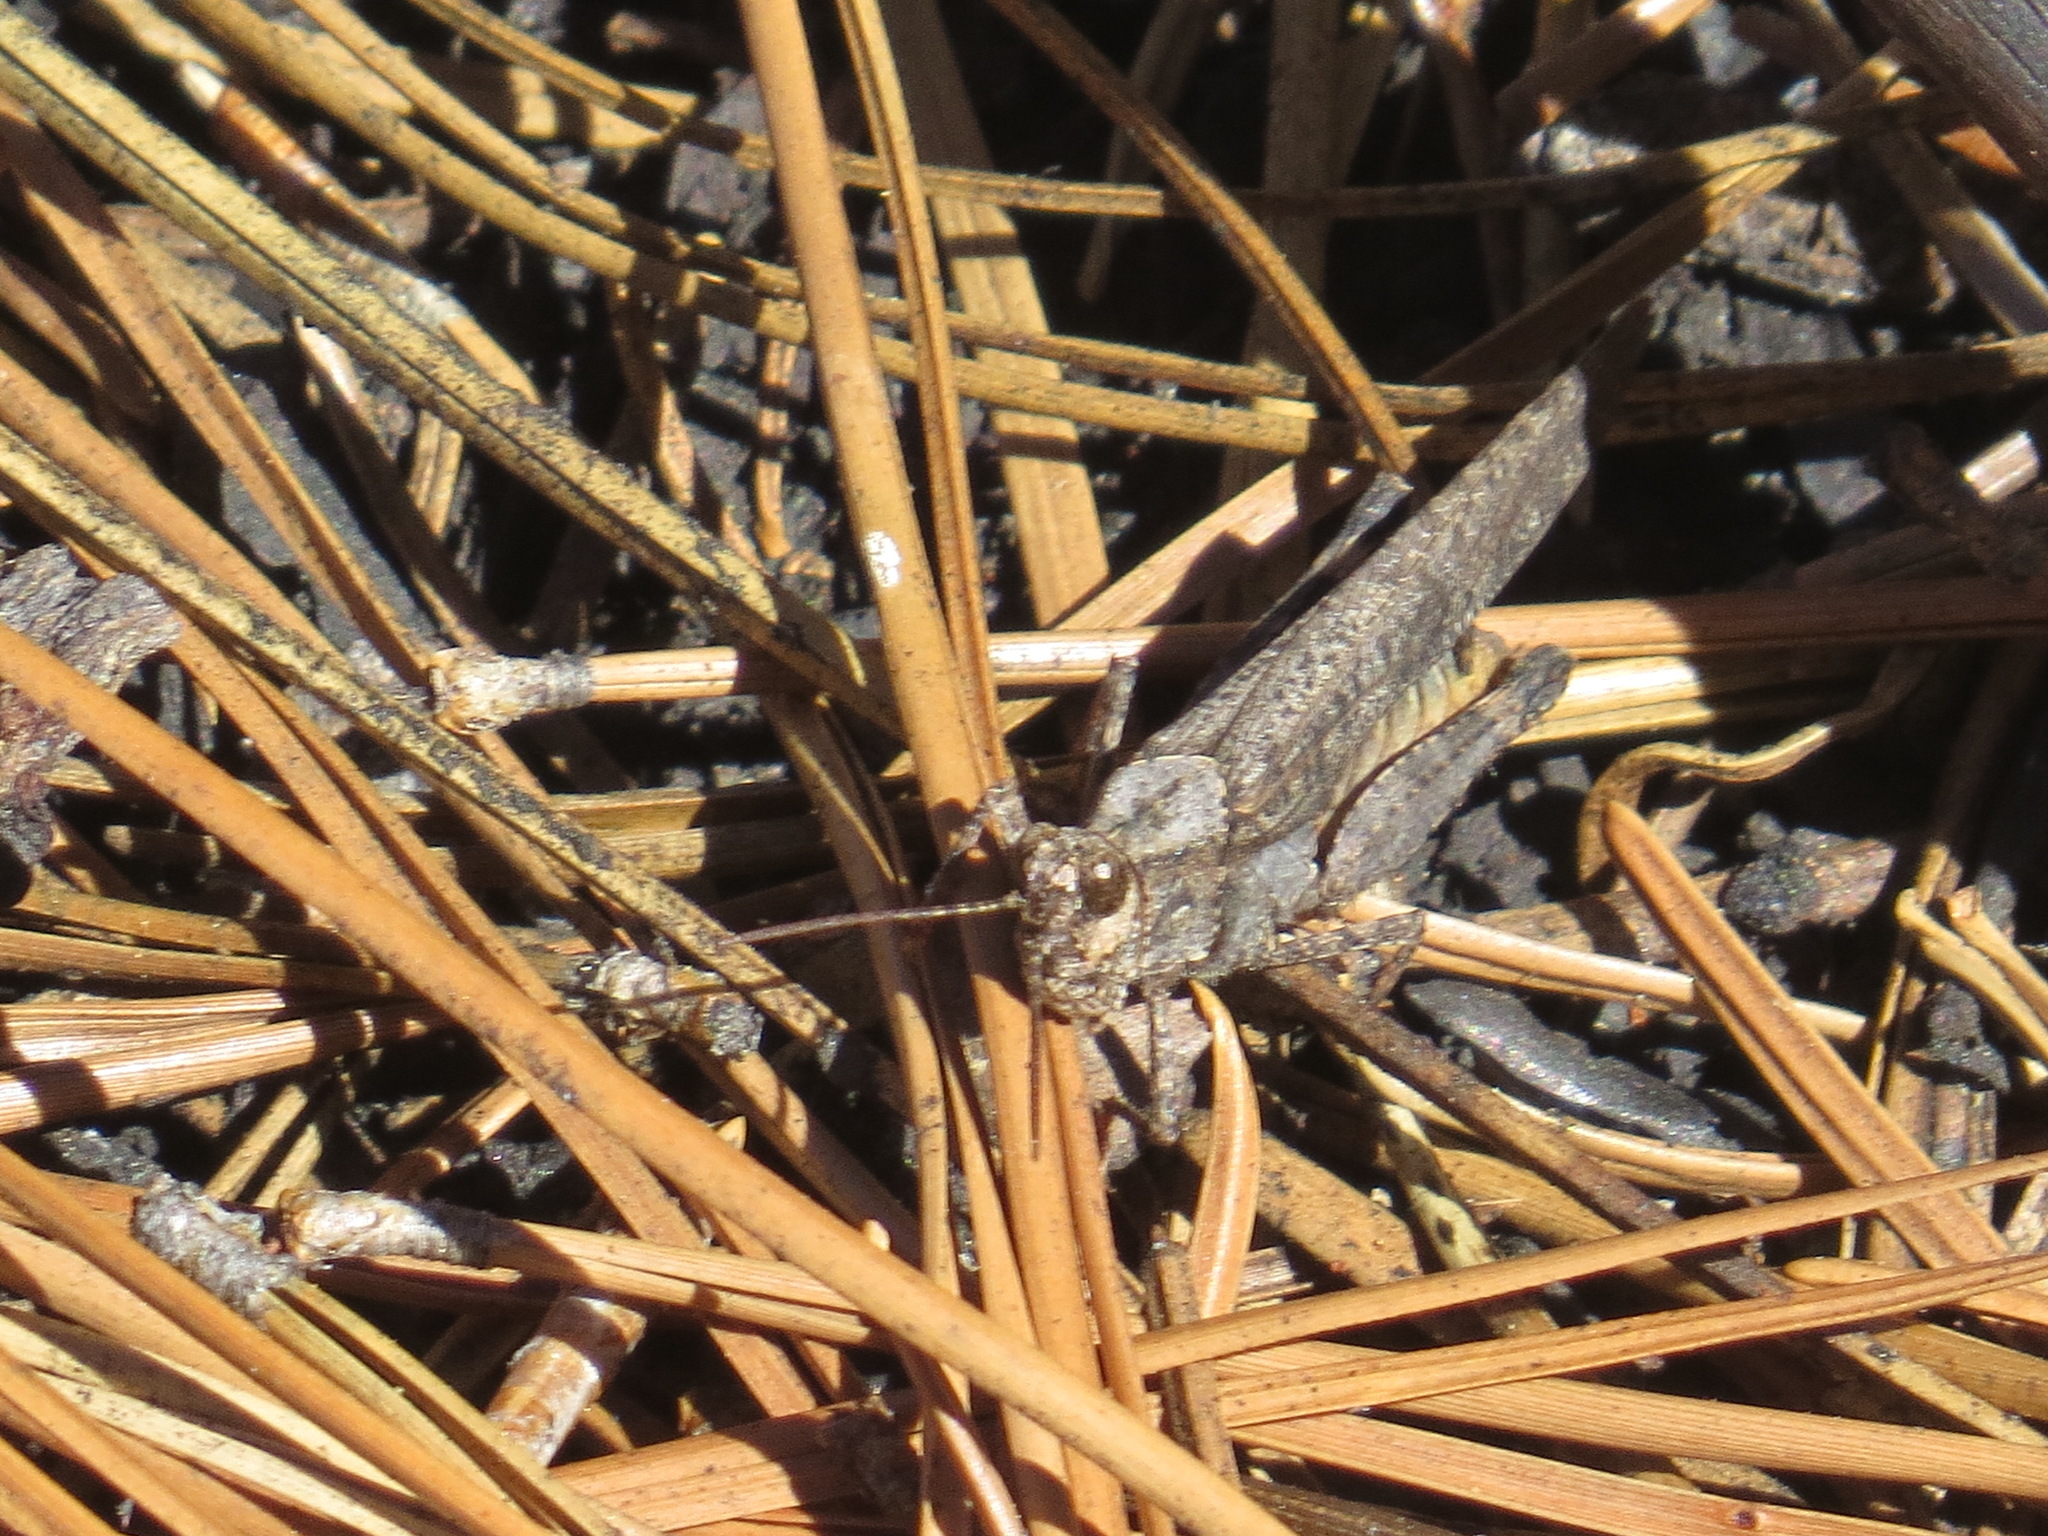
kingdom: Animalia
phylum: Arthropoda
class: Insecta
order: Orthoptera
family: Acrididae
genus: Trimerotropis
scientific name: Trimerotropis verruculata
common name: Crackling forest grasshopper
